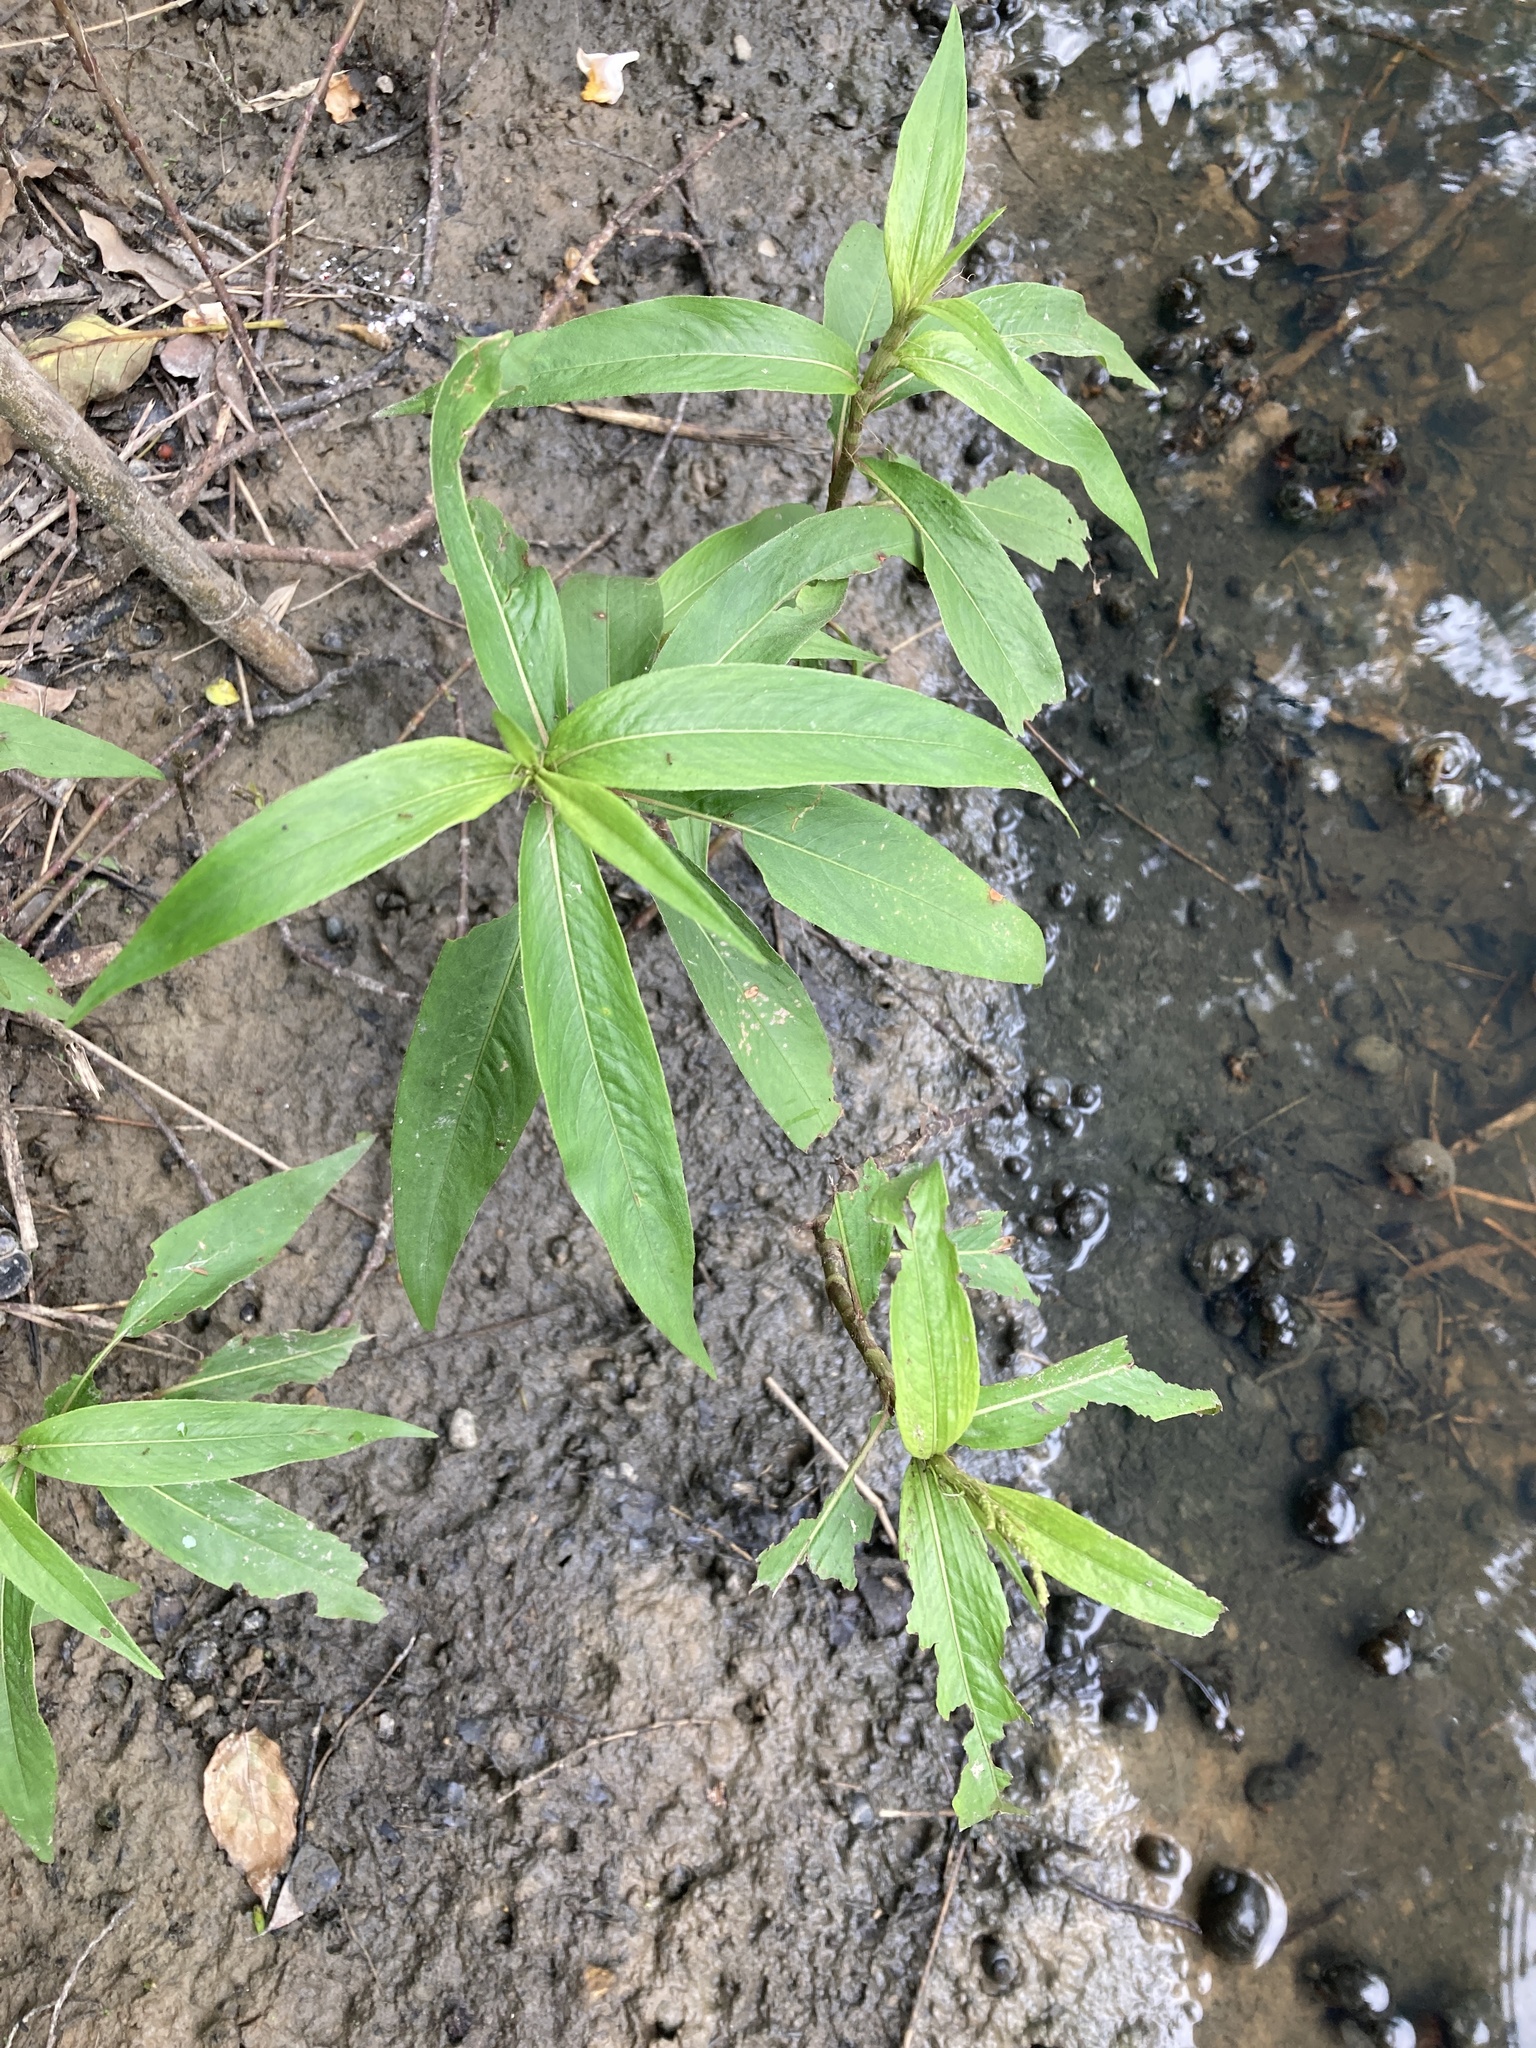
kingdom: Plantae
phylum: Tracheophyta
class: Magnoliopsida
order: Caryophyllales
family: Polygonaceae
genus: Persicaria
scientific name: Persicaria barbata
